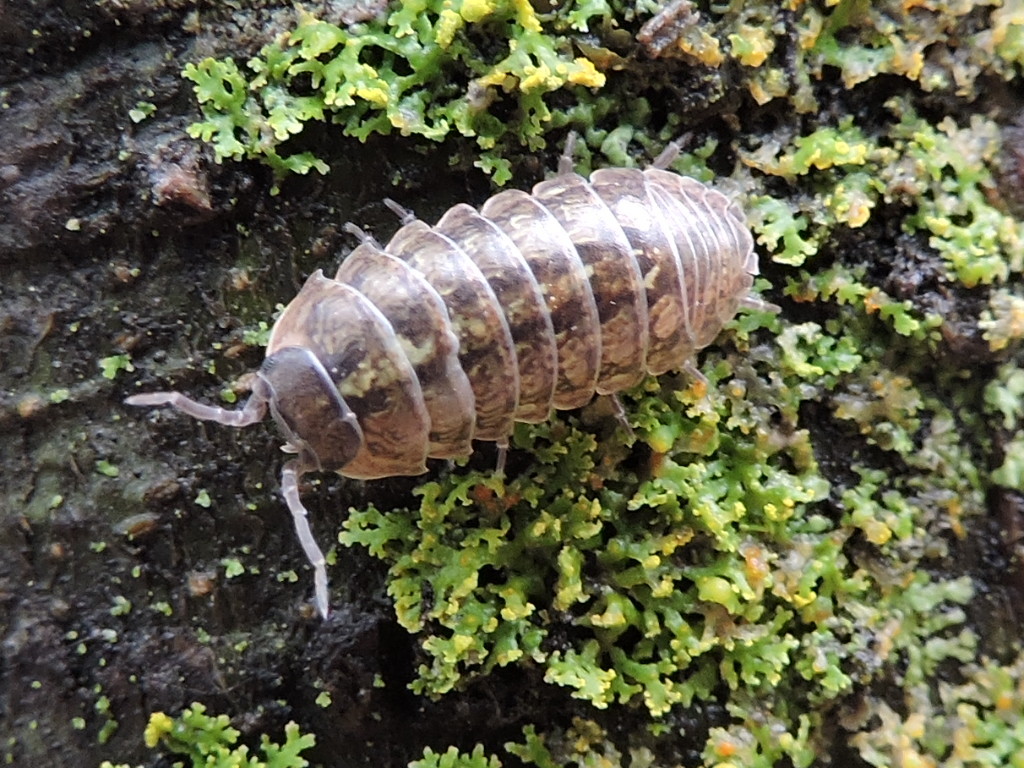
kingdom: Animalia
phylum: Arthropoda
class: Malacostraca
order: Isopoda
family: Armadillidiidae
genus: Armadillidium
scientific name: Armadillidium vulgare
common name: Common pill woodlouse
